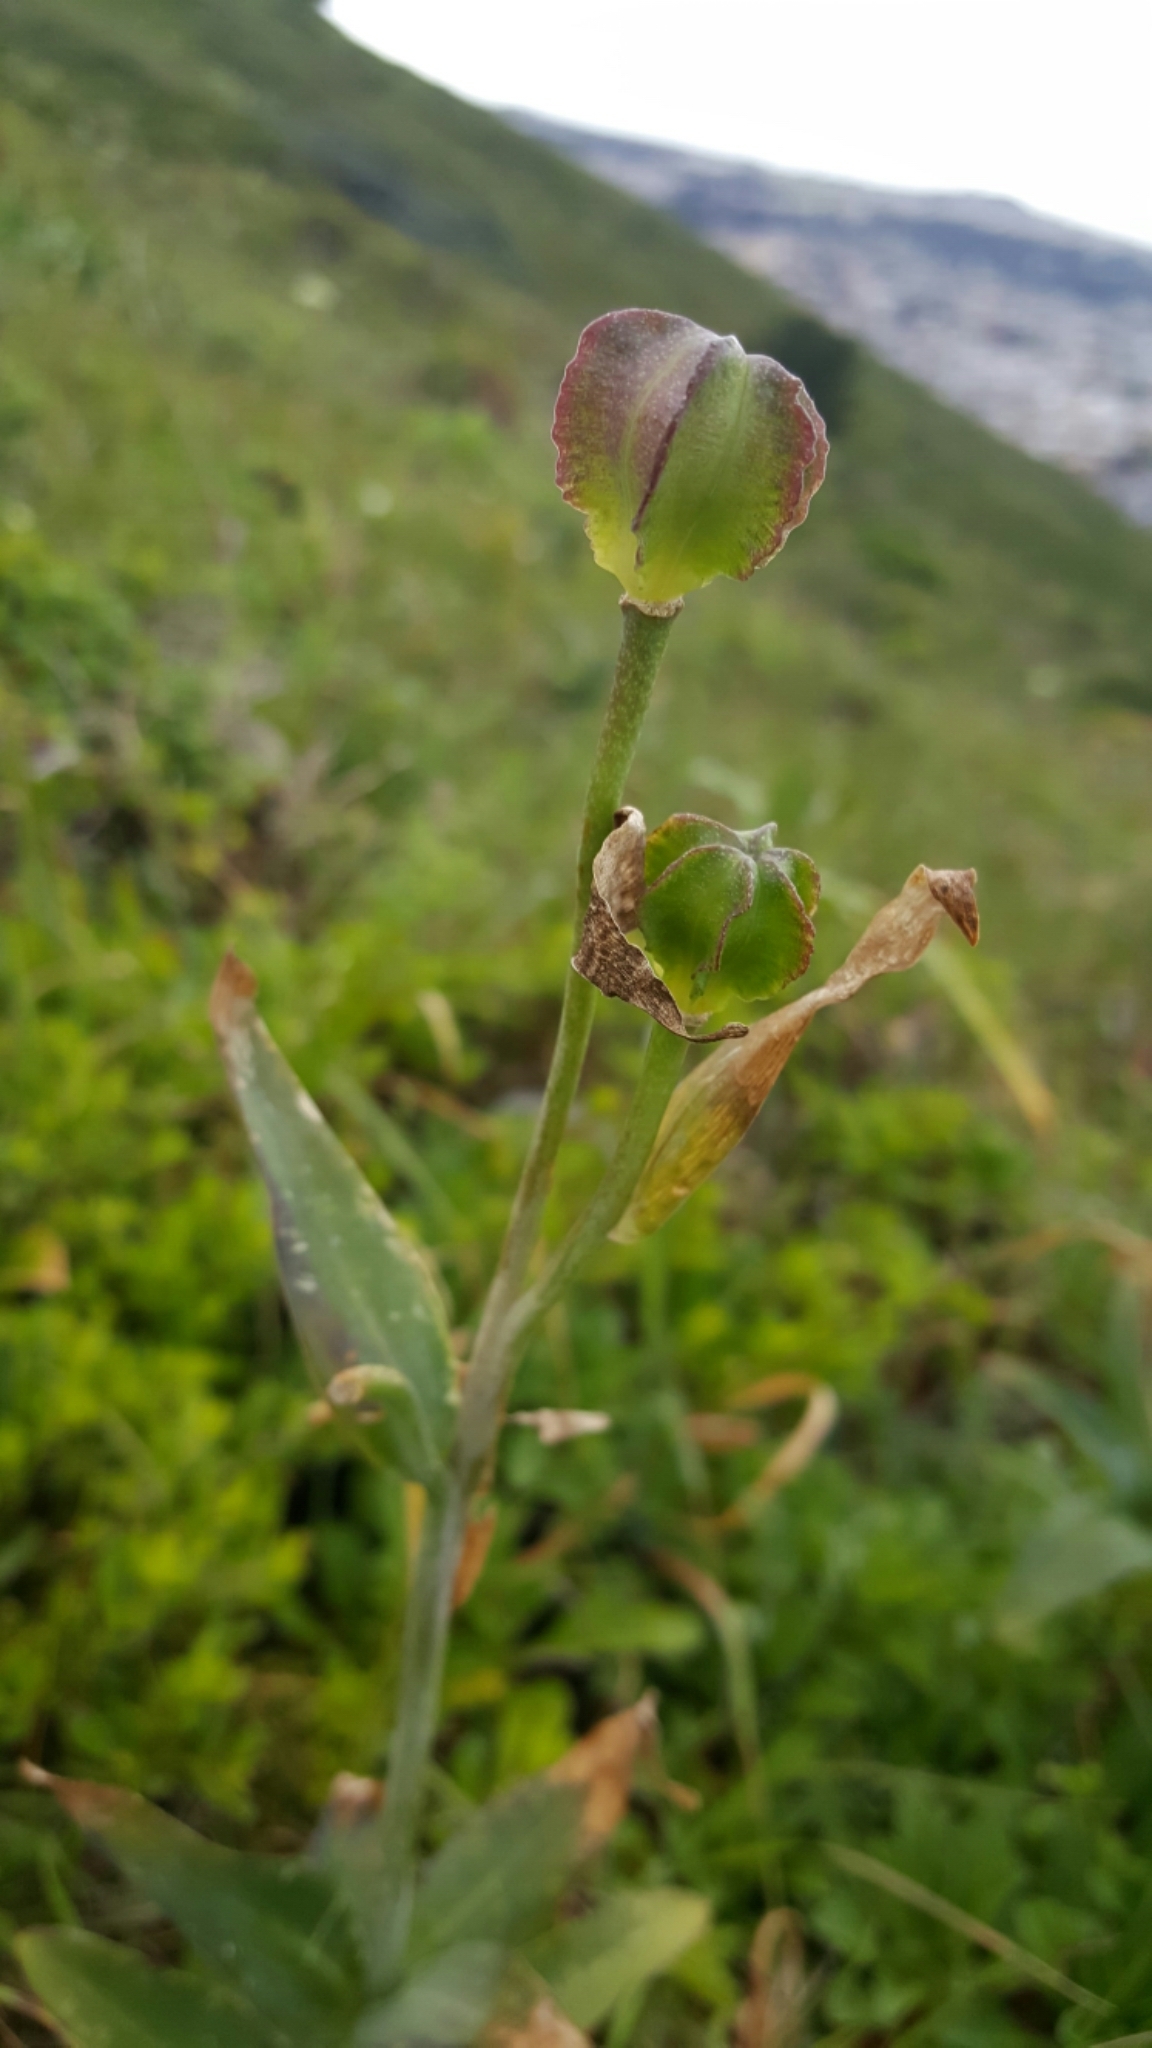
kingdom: Plantae
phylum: Tracheophyta
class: Liliopsida
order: Liliales
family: Liliaceae
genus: Fritillaria
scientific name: Fritillaria affinis
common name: Ojai fritillary
